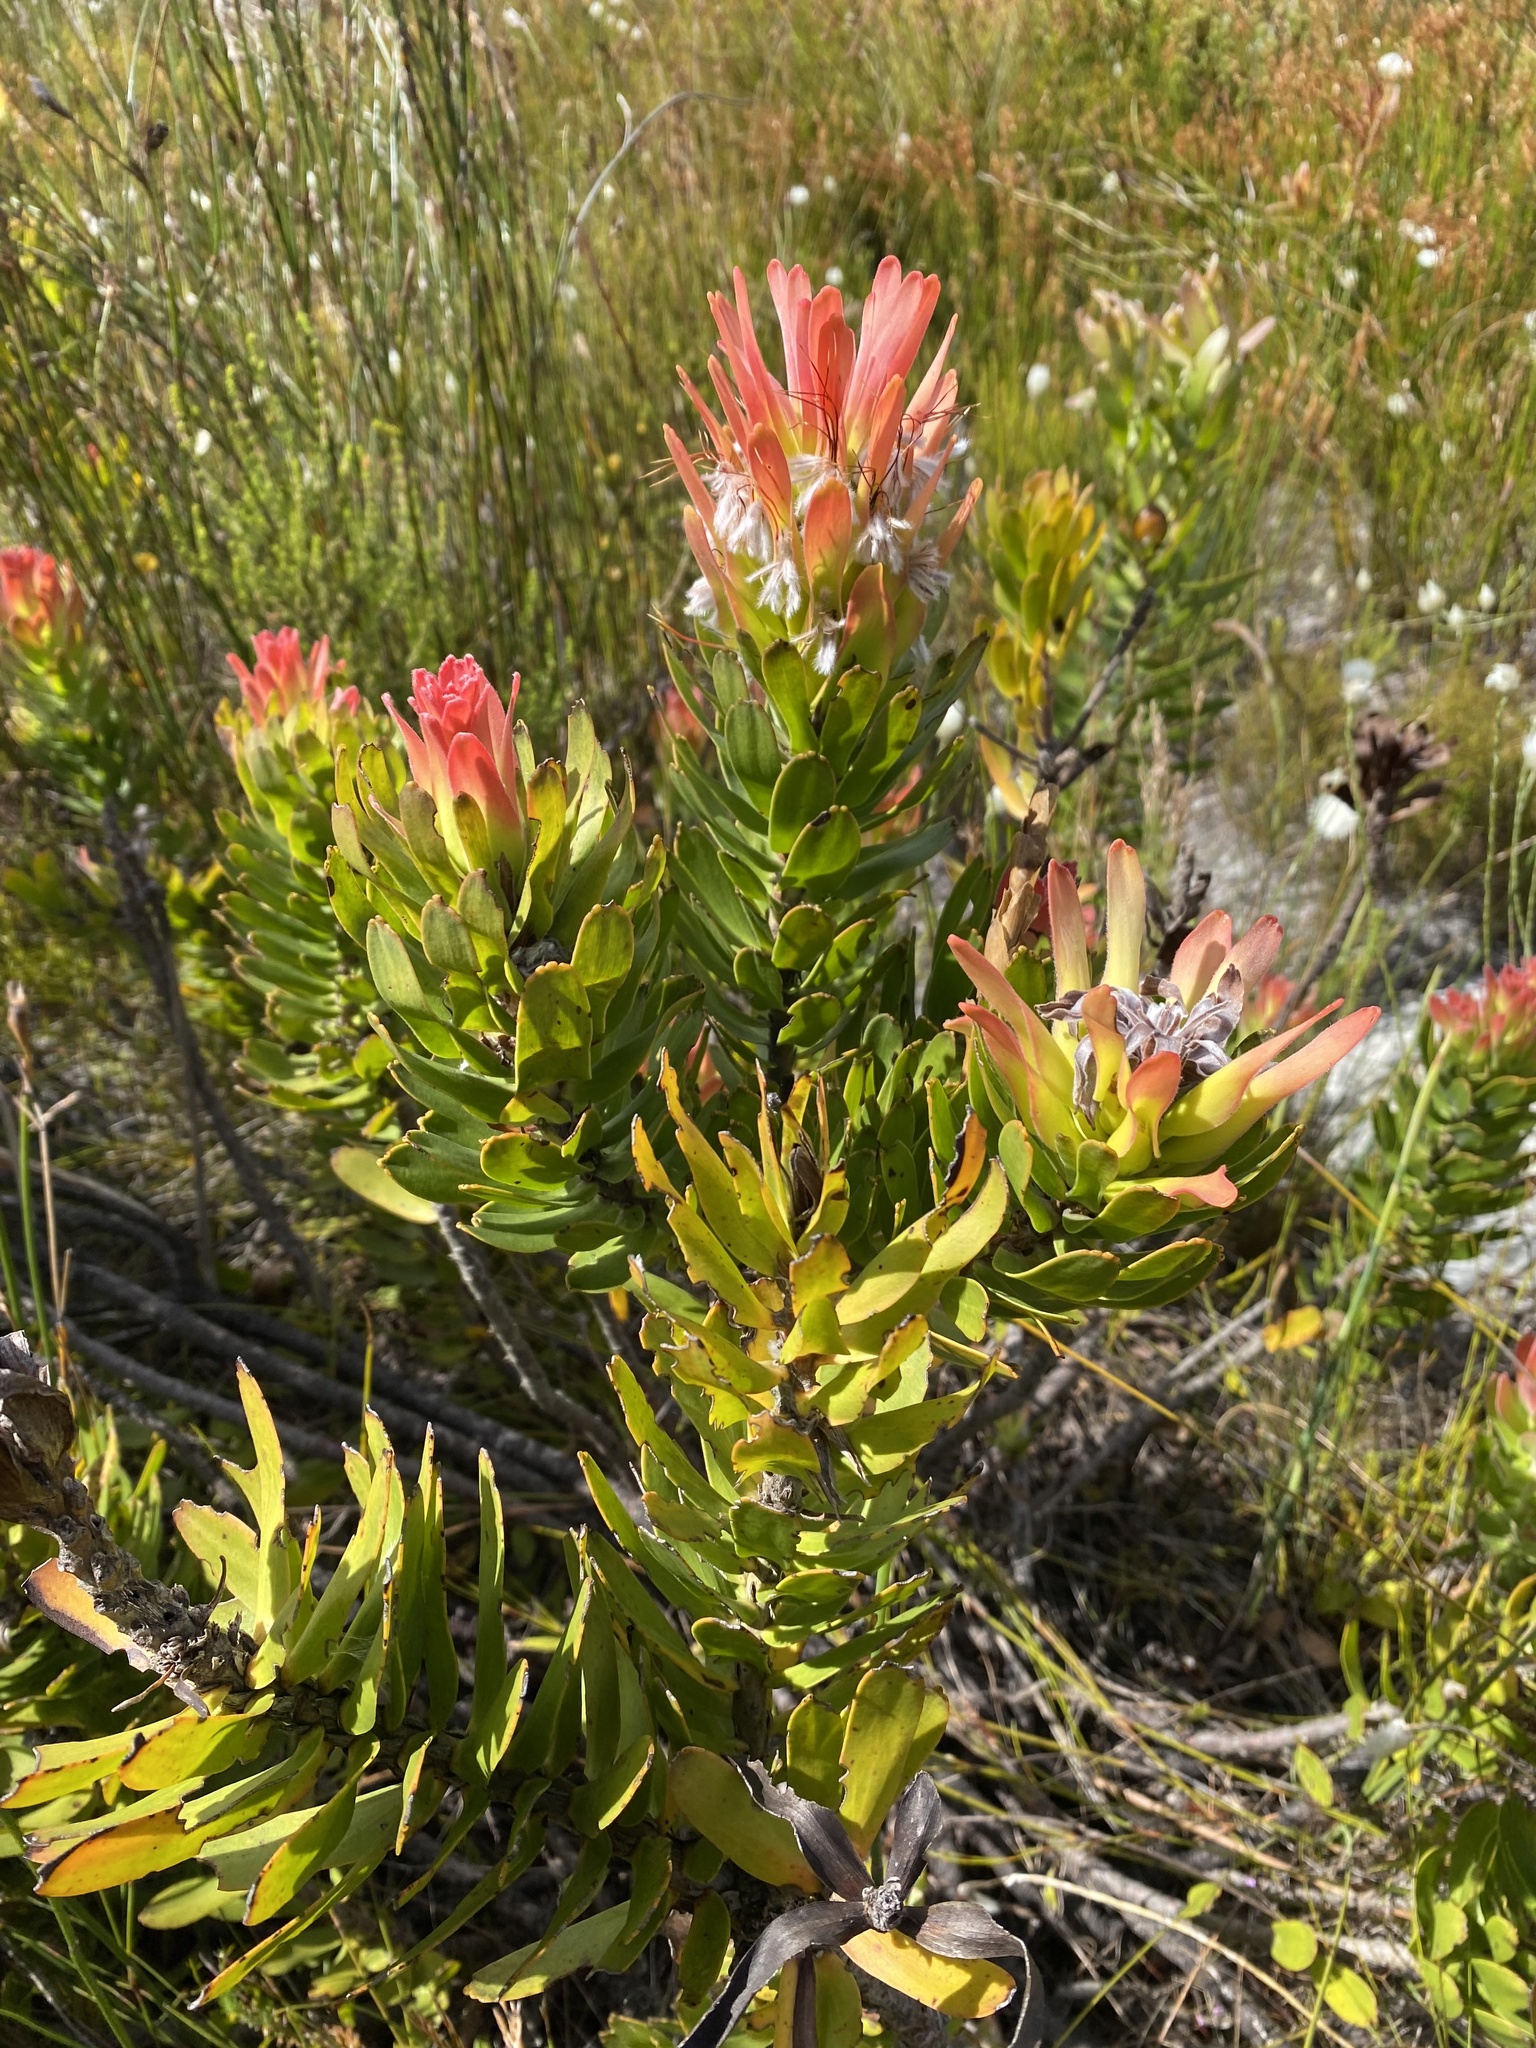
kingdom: Plantae
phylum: Tracheophyta
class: Magnoliopsida
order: Proteales
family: Proteaceae
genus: Mimetes
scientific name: Mimetes cucullatus
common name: Common pagoda
